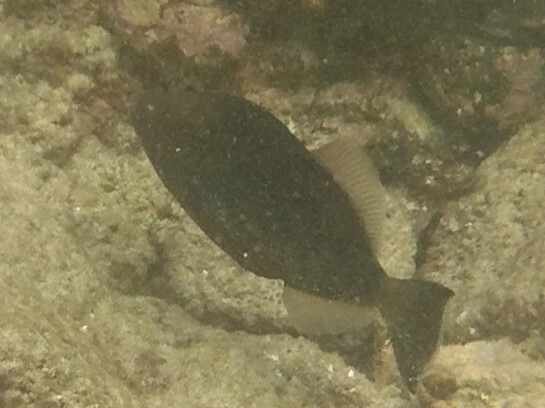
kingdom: Animalia
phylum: Chordata
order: Tetraodontiformes
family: Balistidae
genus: Sufflamen
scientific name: Sufflamen verres
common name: Orangeside triggerfish
